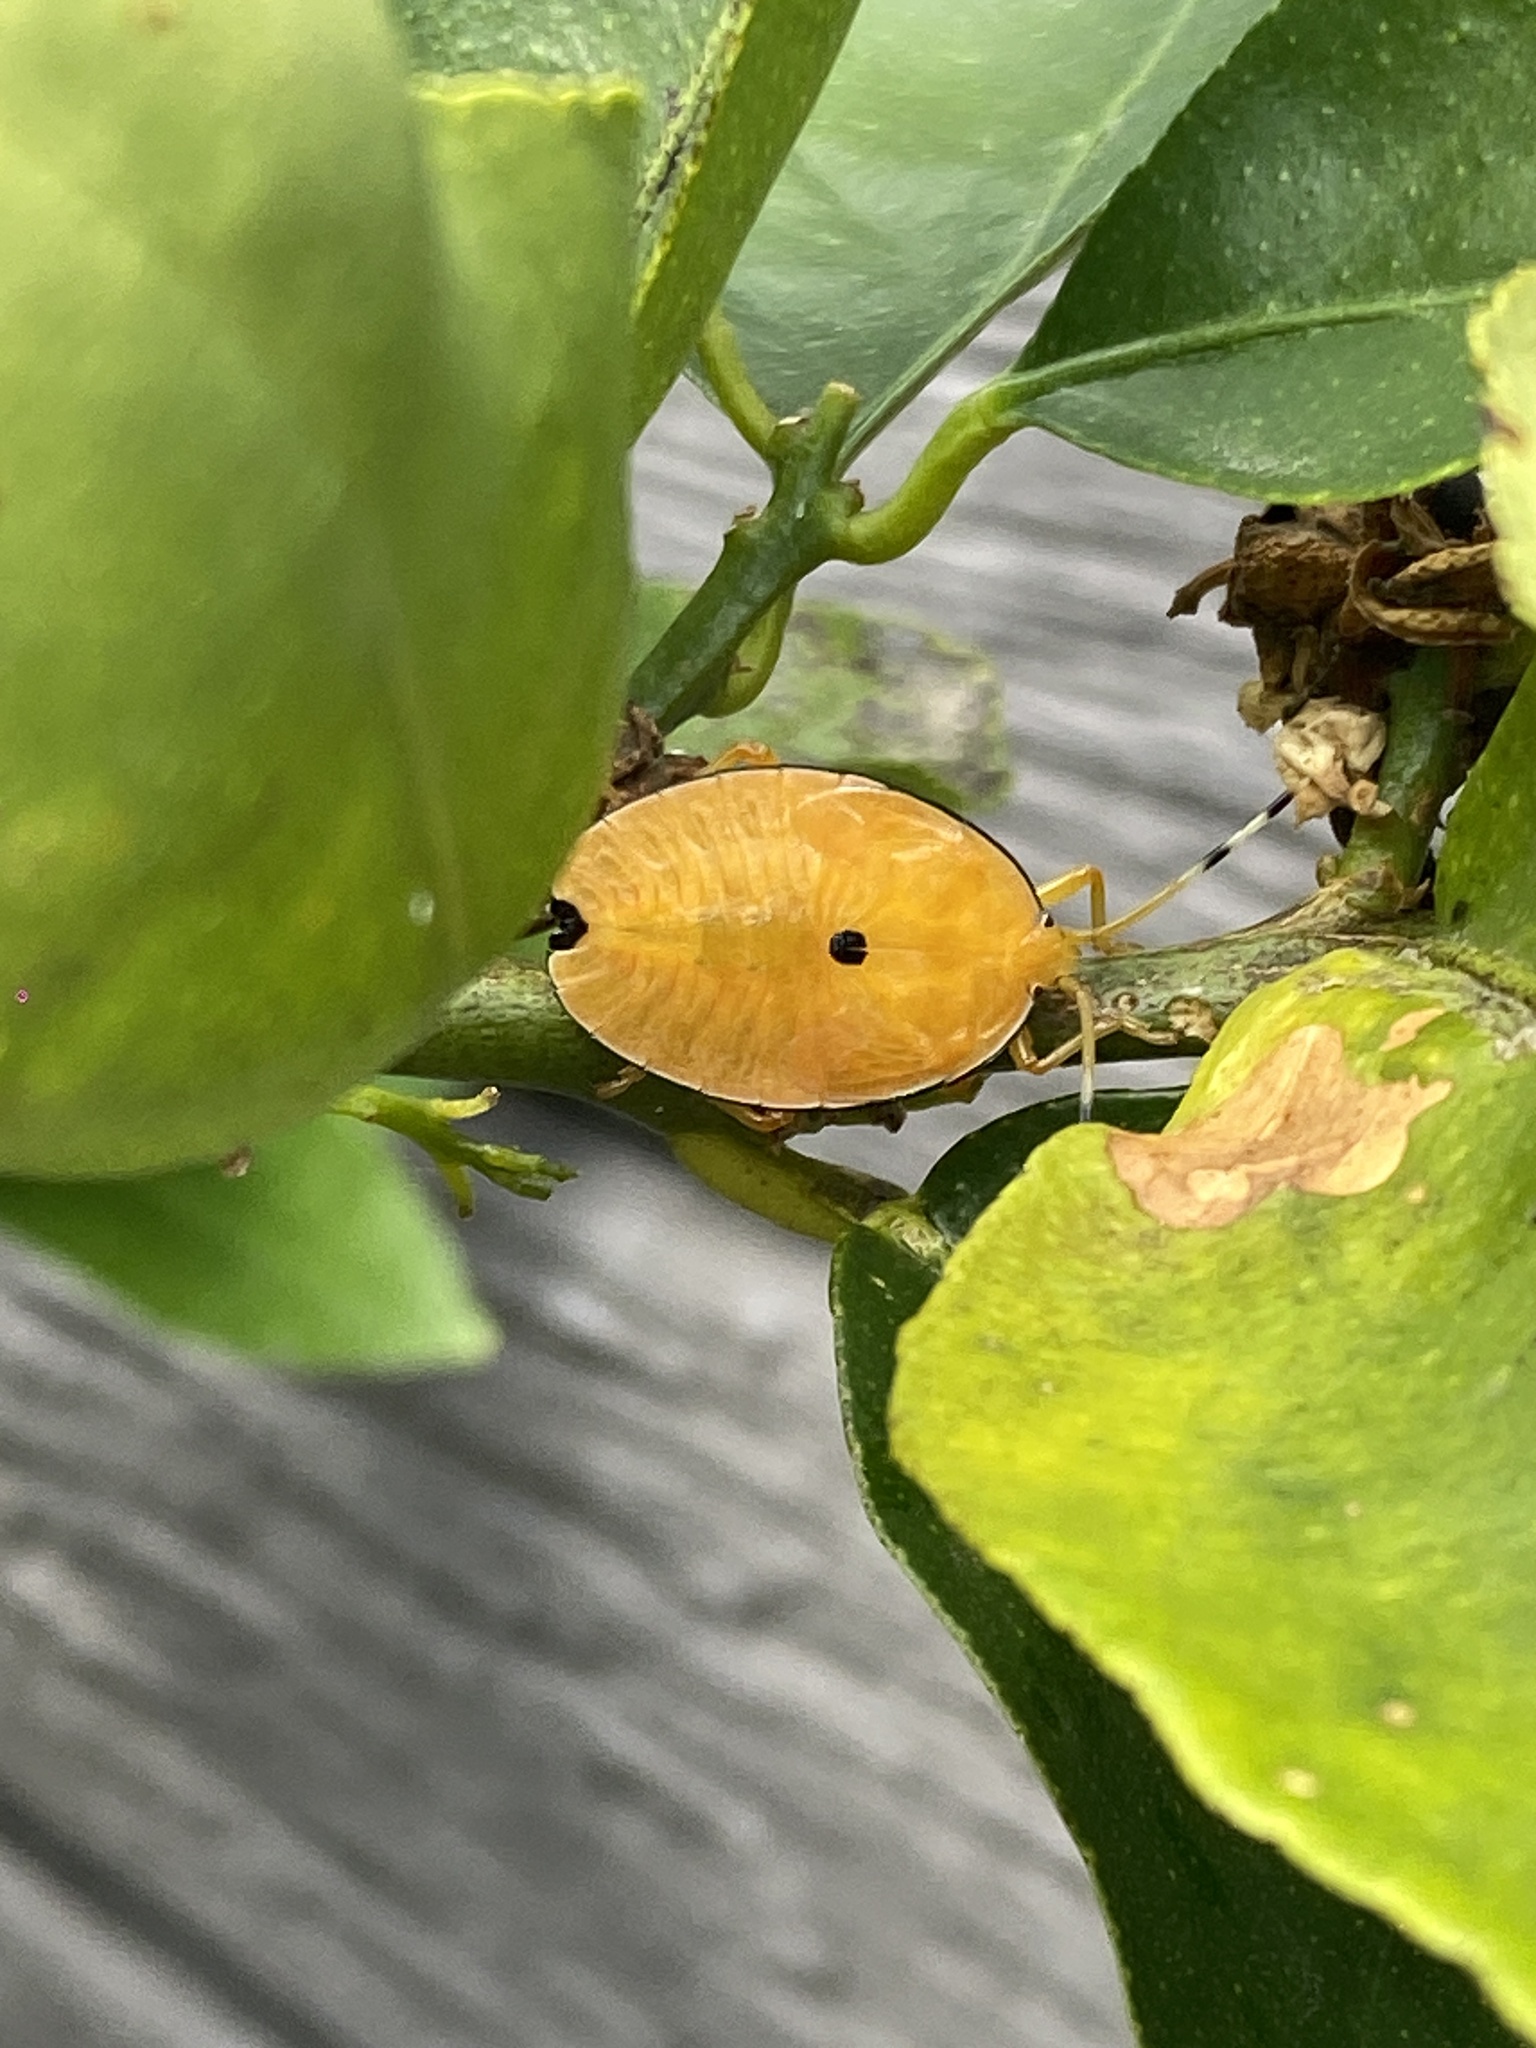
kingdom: Animalia
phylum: Arthropoda
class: Insecta
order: Hemiptera
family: Tessaratomidae
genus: Musgraveia
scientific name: Musgraveia sulciventris
